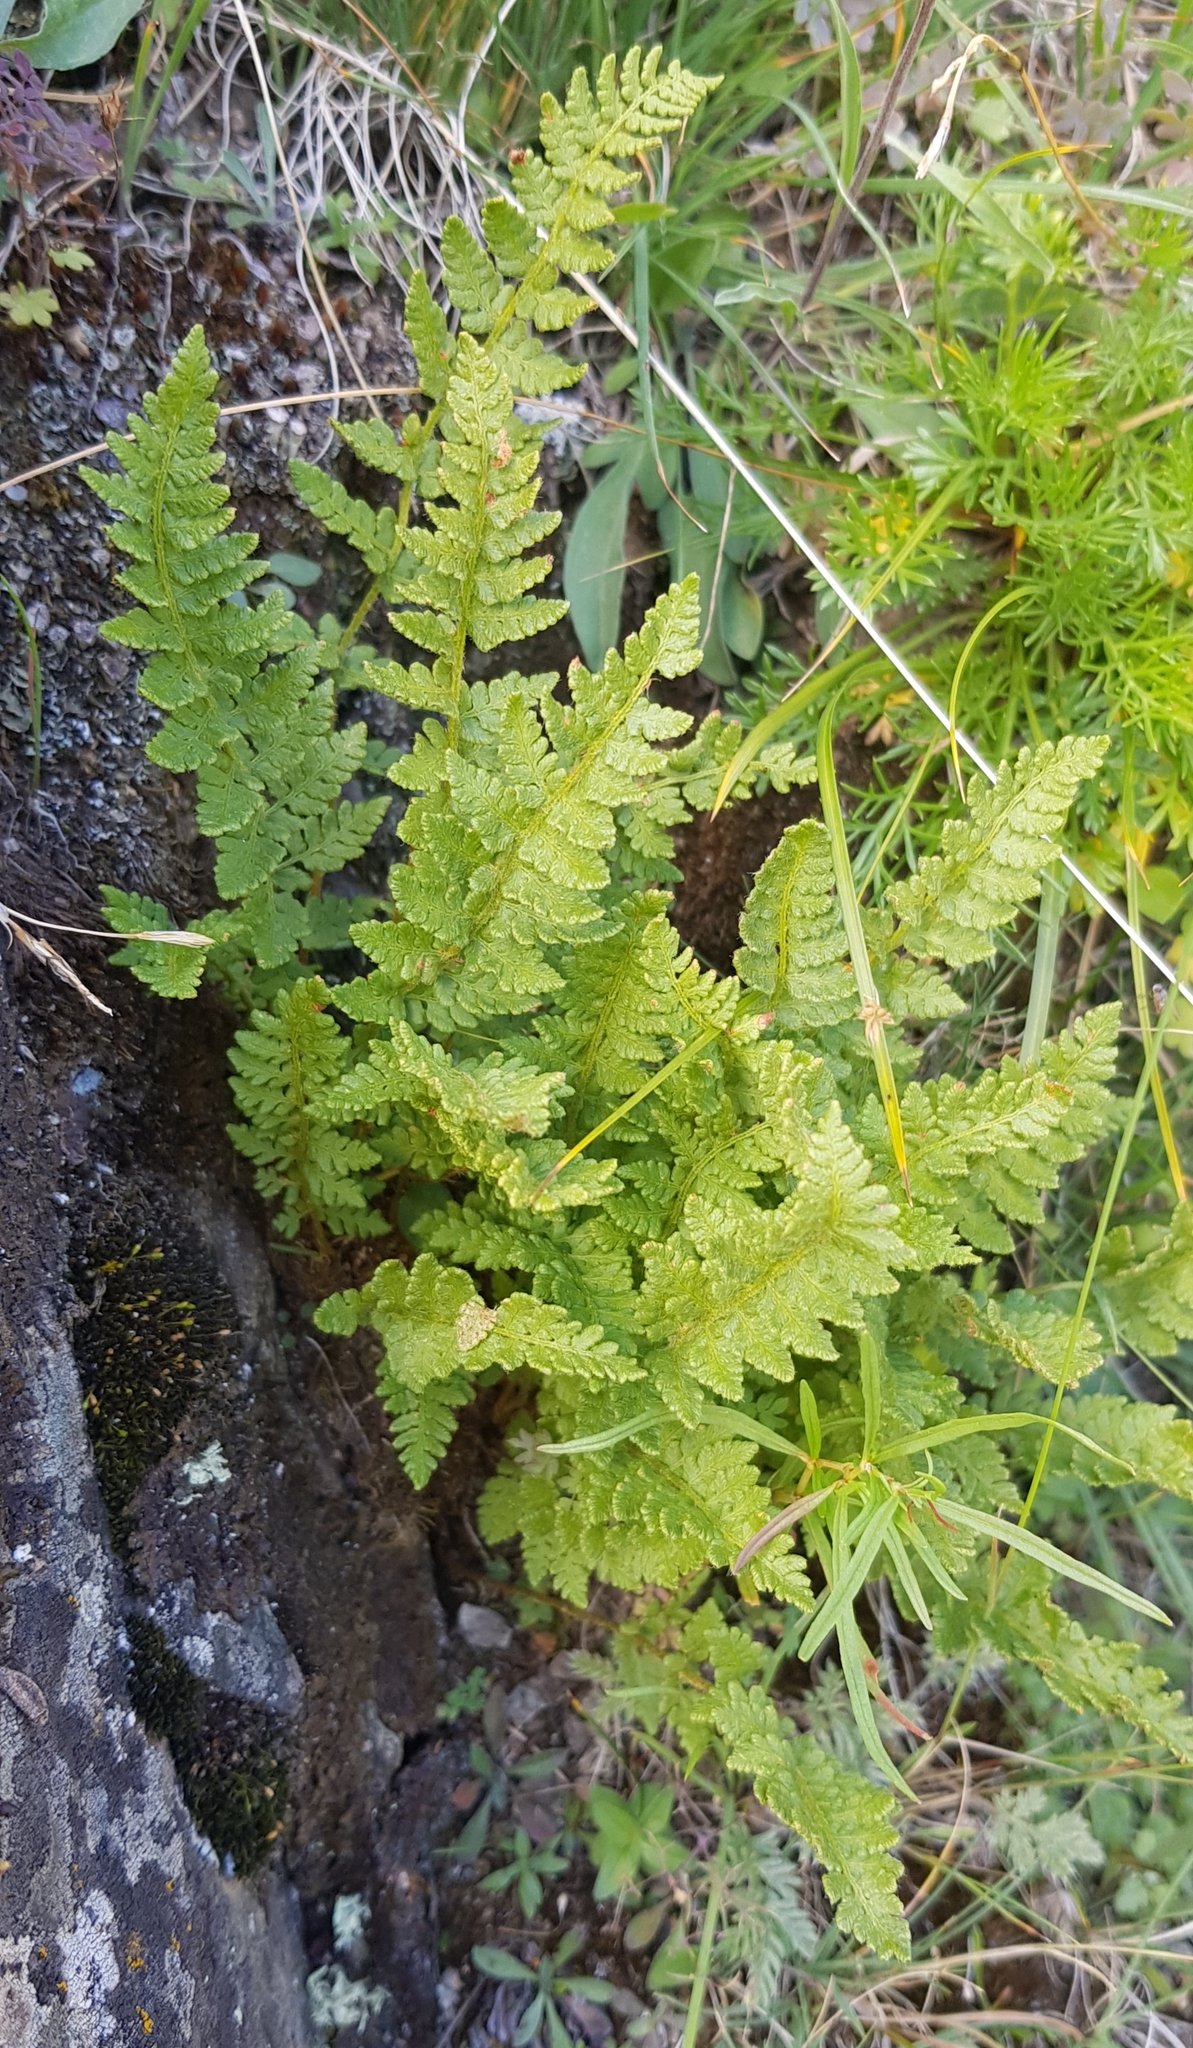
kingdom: Plantae
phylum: Tracheophyta
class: Polypodiopsida
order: Polypodiales
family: Woodsiaceae
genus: Woodsia
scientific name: Woodsia ilvensis
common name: Fragrant woodsia
